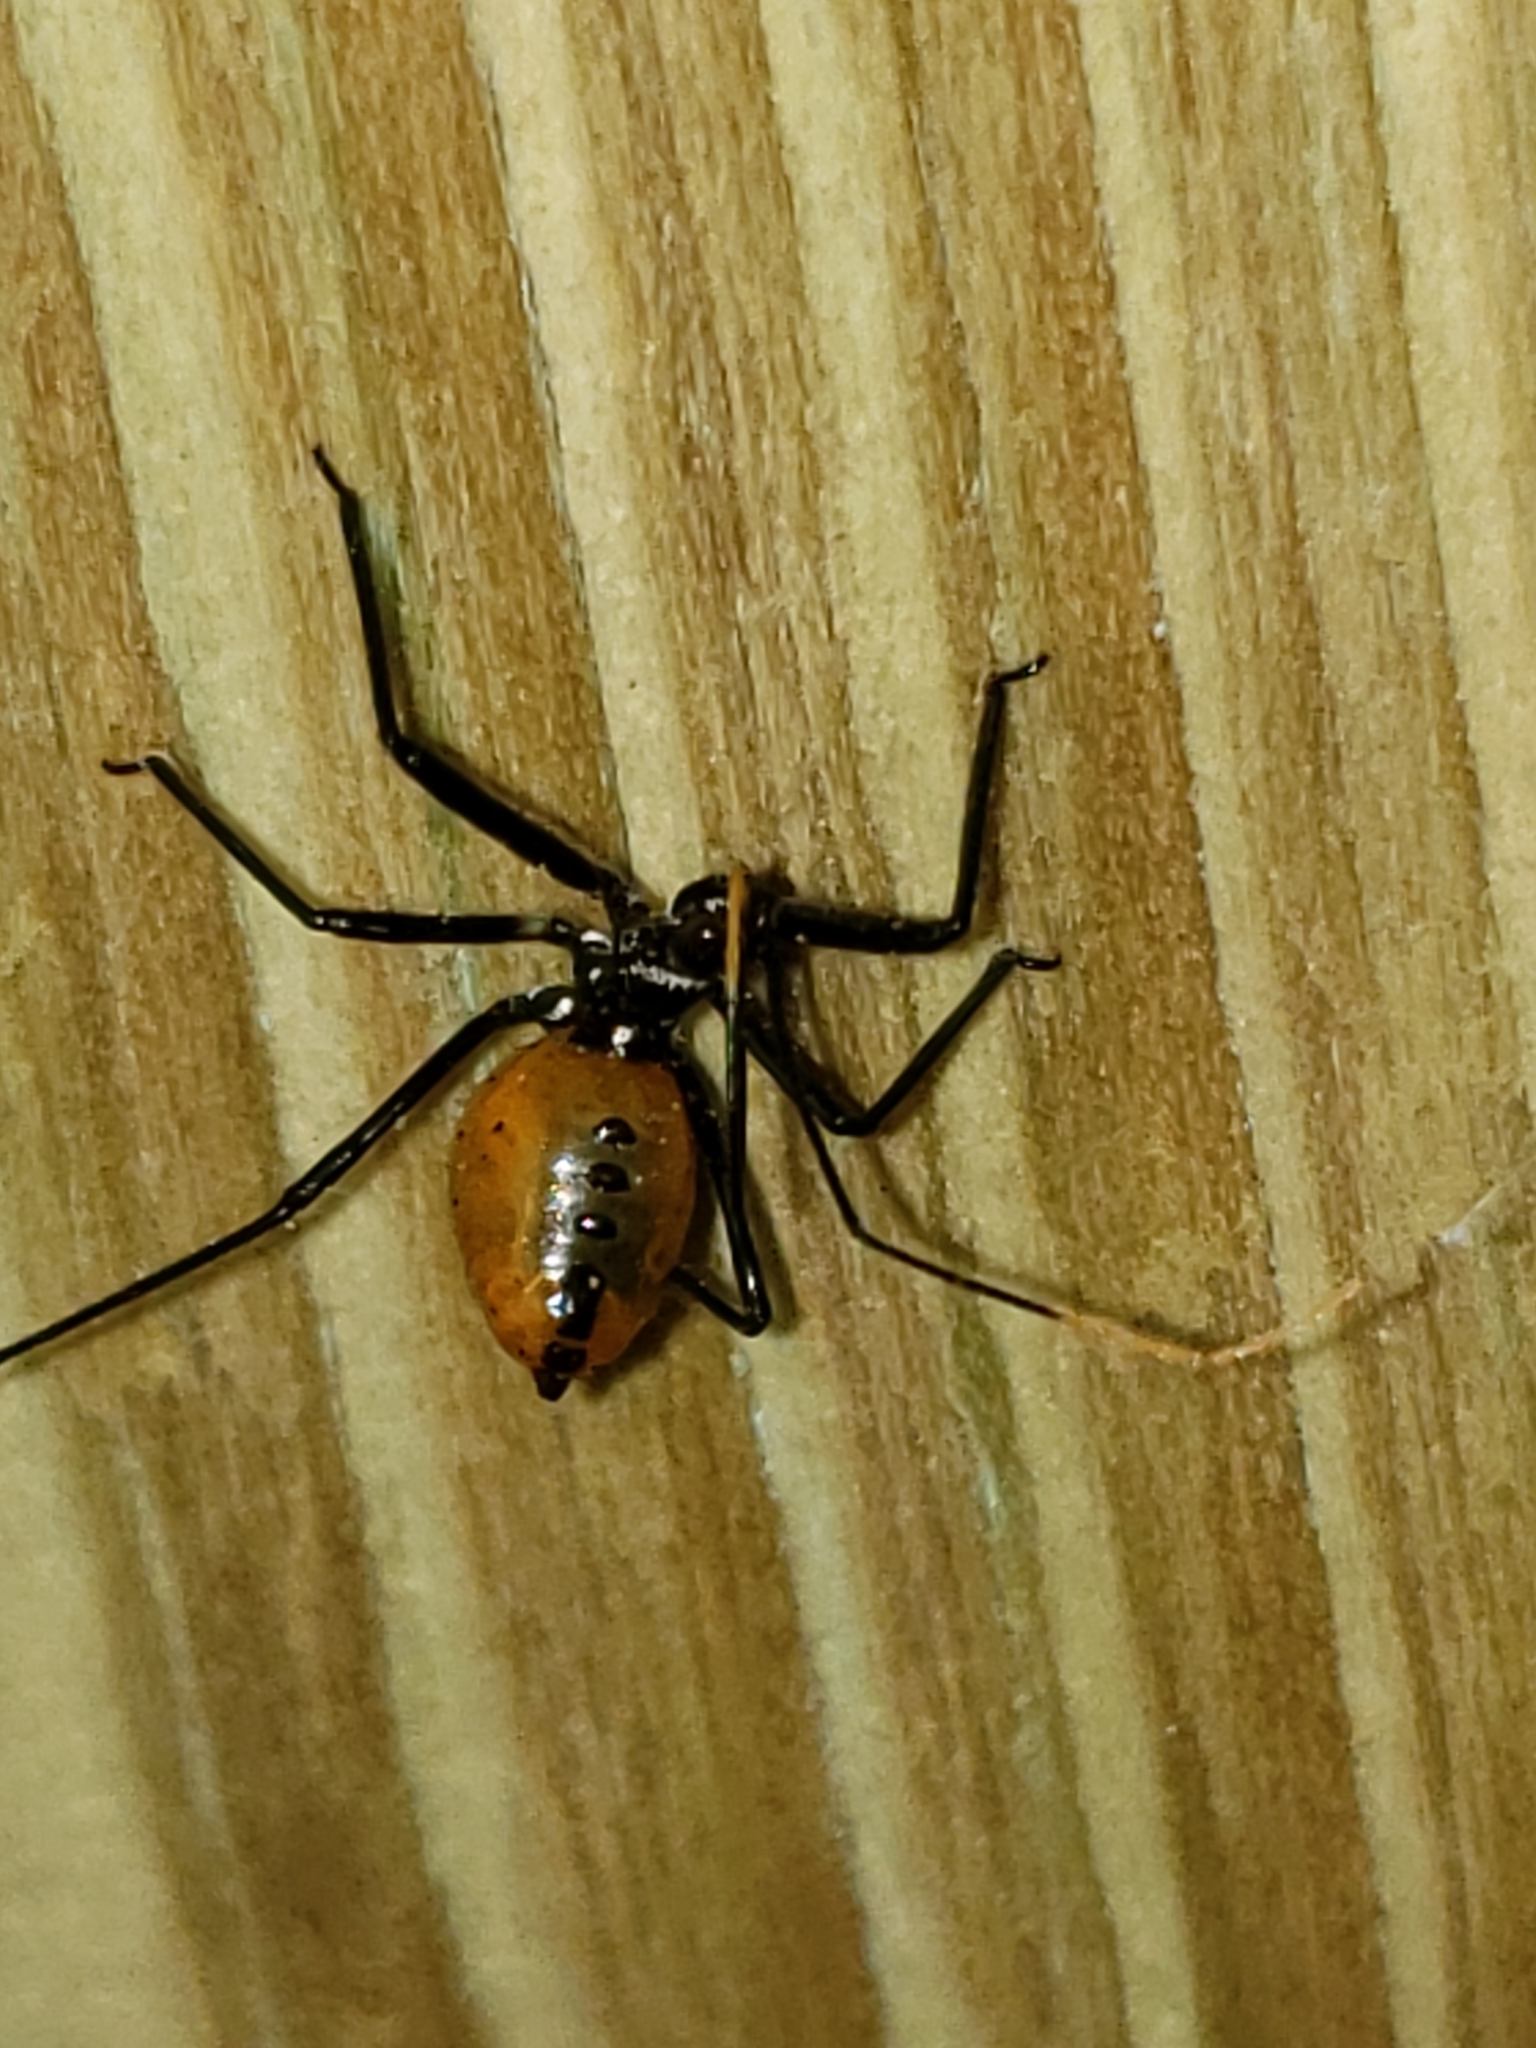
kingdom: Animalia
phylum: Arthropoda
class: Insecta
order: Hemiptera
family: Reduviidae
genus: Arilus
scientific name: Arilus cristatus
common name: North american wheel bug
